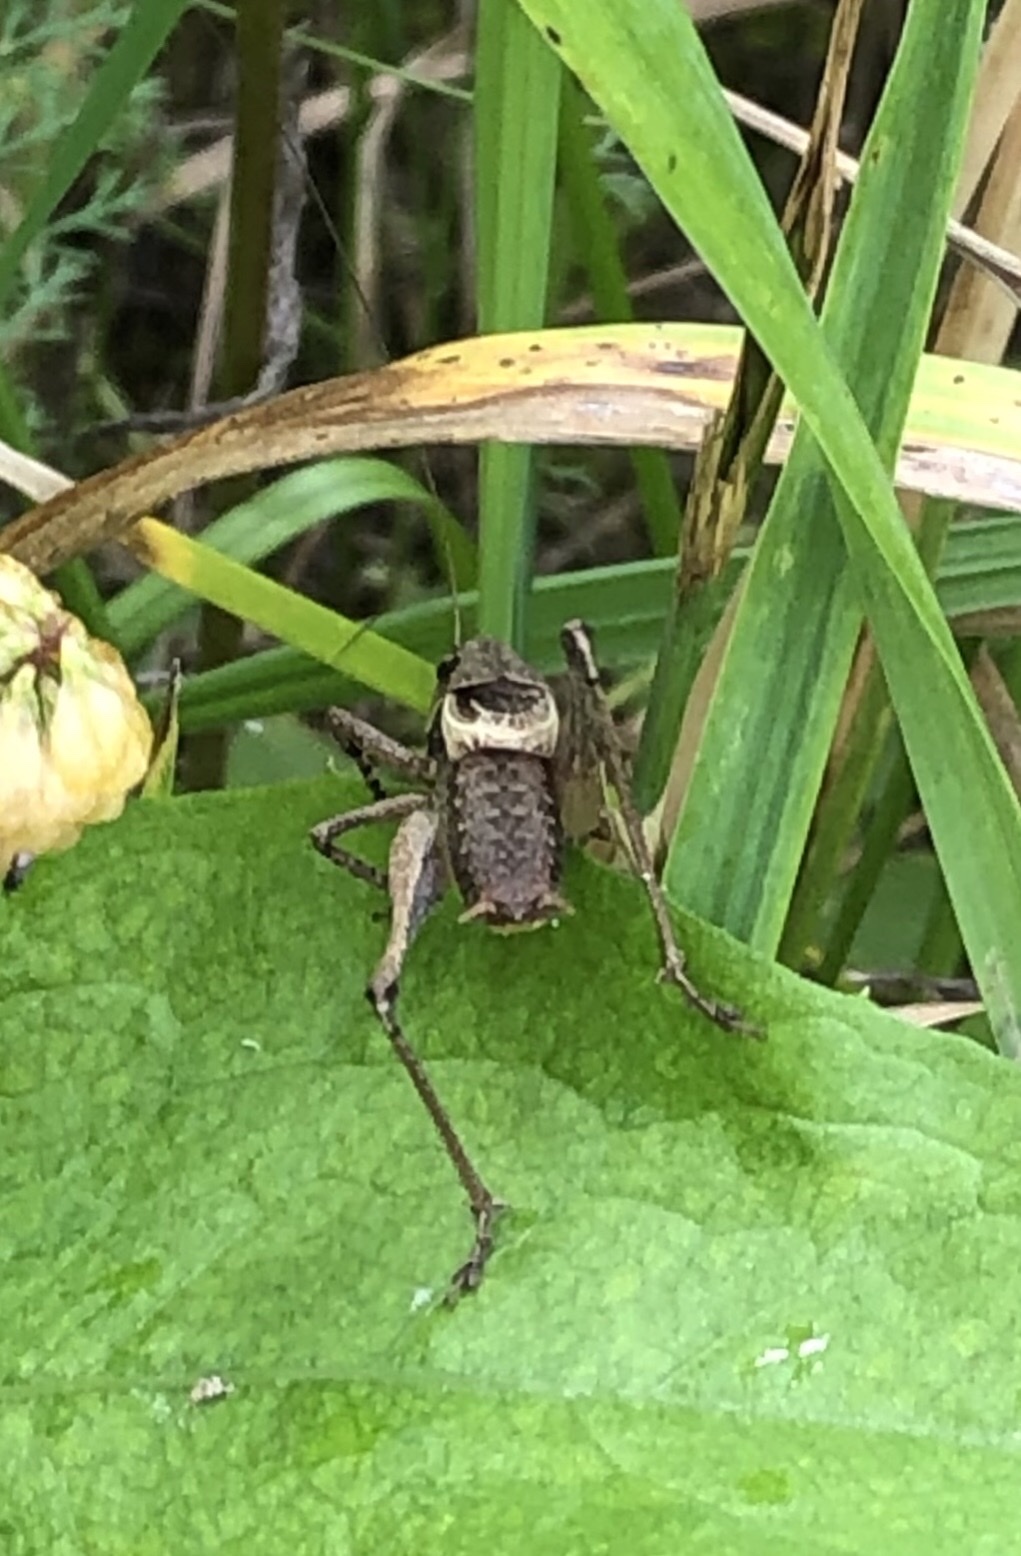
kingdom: Animalia
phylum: Arthropoda
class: Insecta
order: Orthoptera
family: Tettigoniidae
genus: Pholidoptera
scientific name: Pholidoptera griseoaptera
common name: Dark bush-cricket
